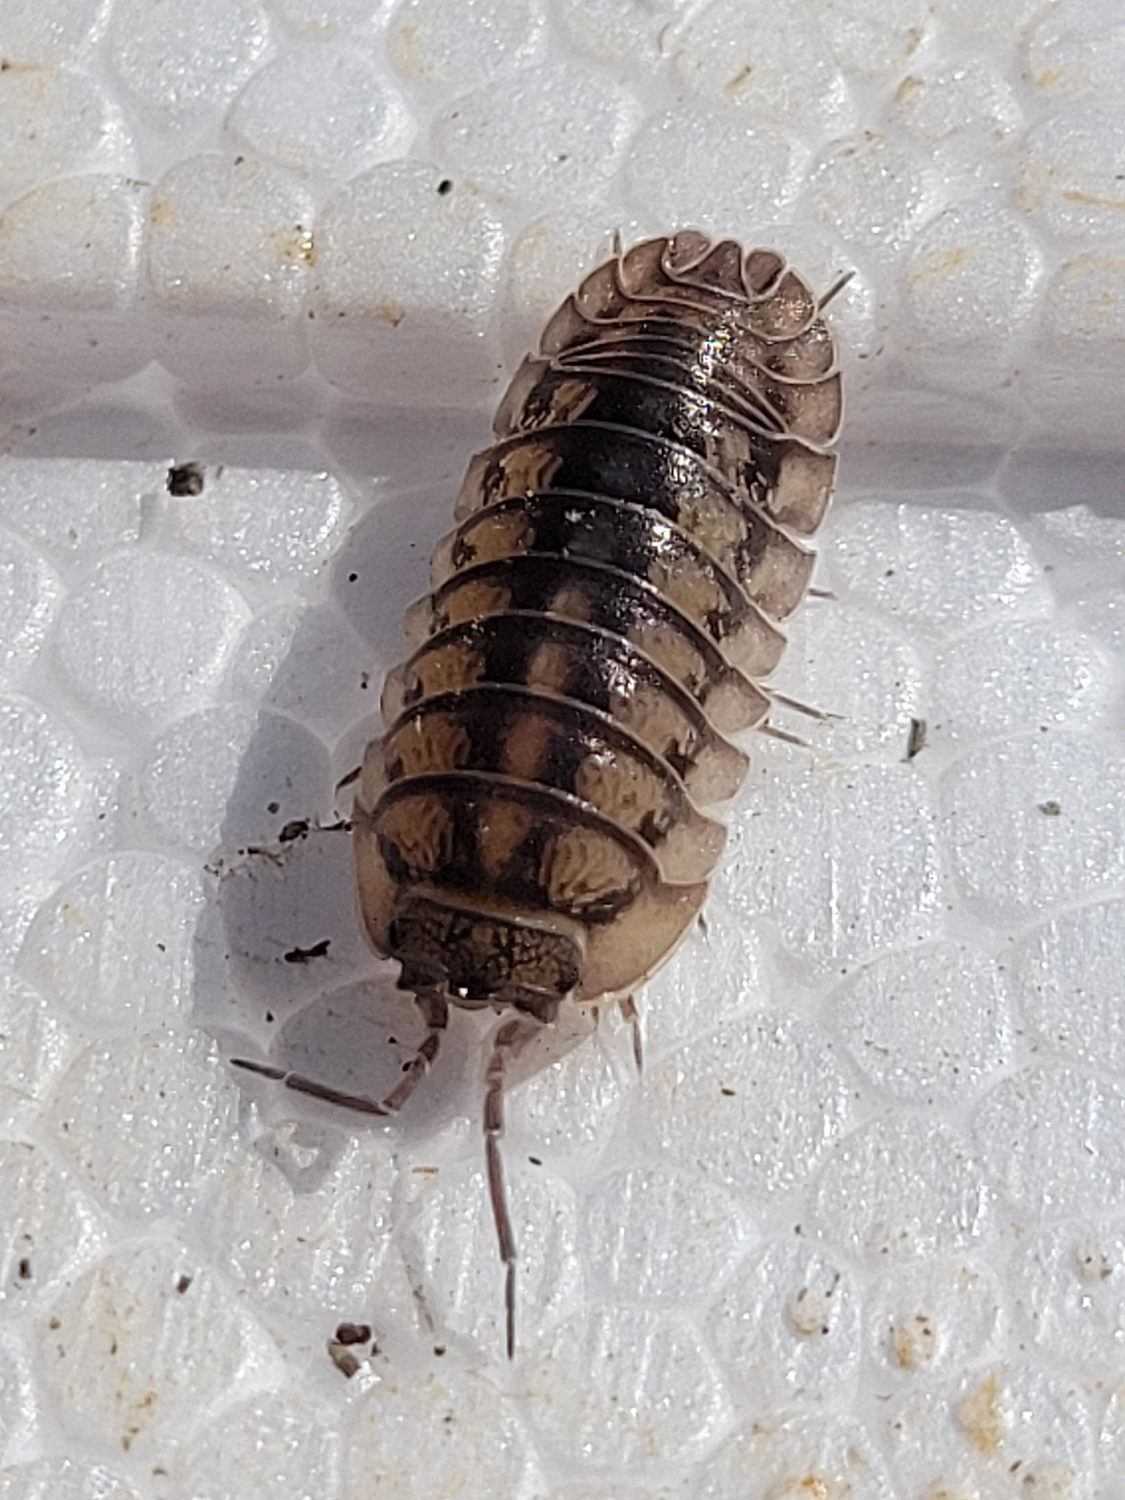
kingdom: Animalia
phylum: Arthropoda
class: Malacostraca
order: Isopoda
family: Armadillidiidae
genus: Armadillidium
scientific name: Armadillidium nasatum
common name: Isopod
